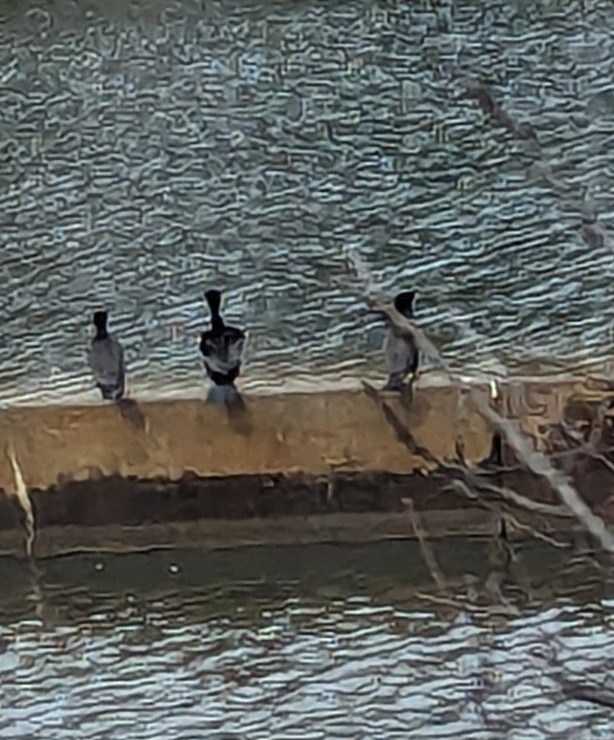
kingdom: Animalia
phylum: Chordata
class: Aves
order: Suliformes
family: Phalacrocoracidae
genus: Phalacrocorax
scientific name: Phalacrocorax auritus
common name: Double-crested cormorant
